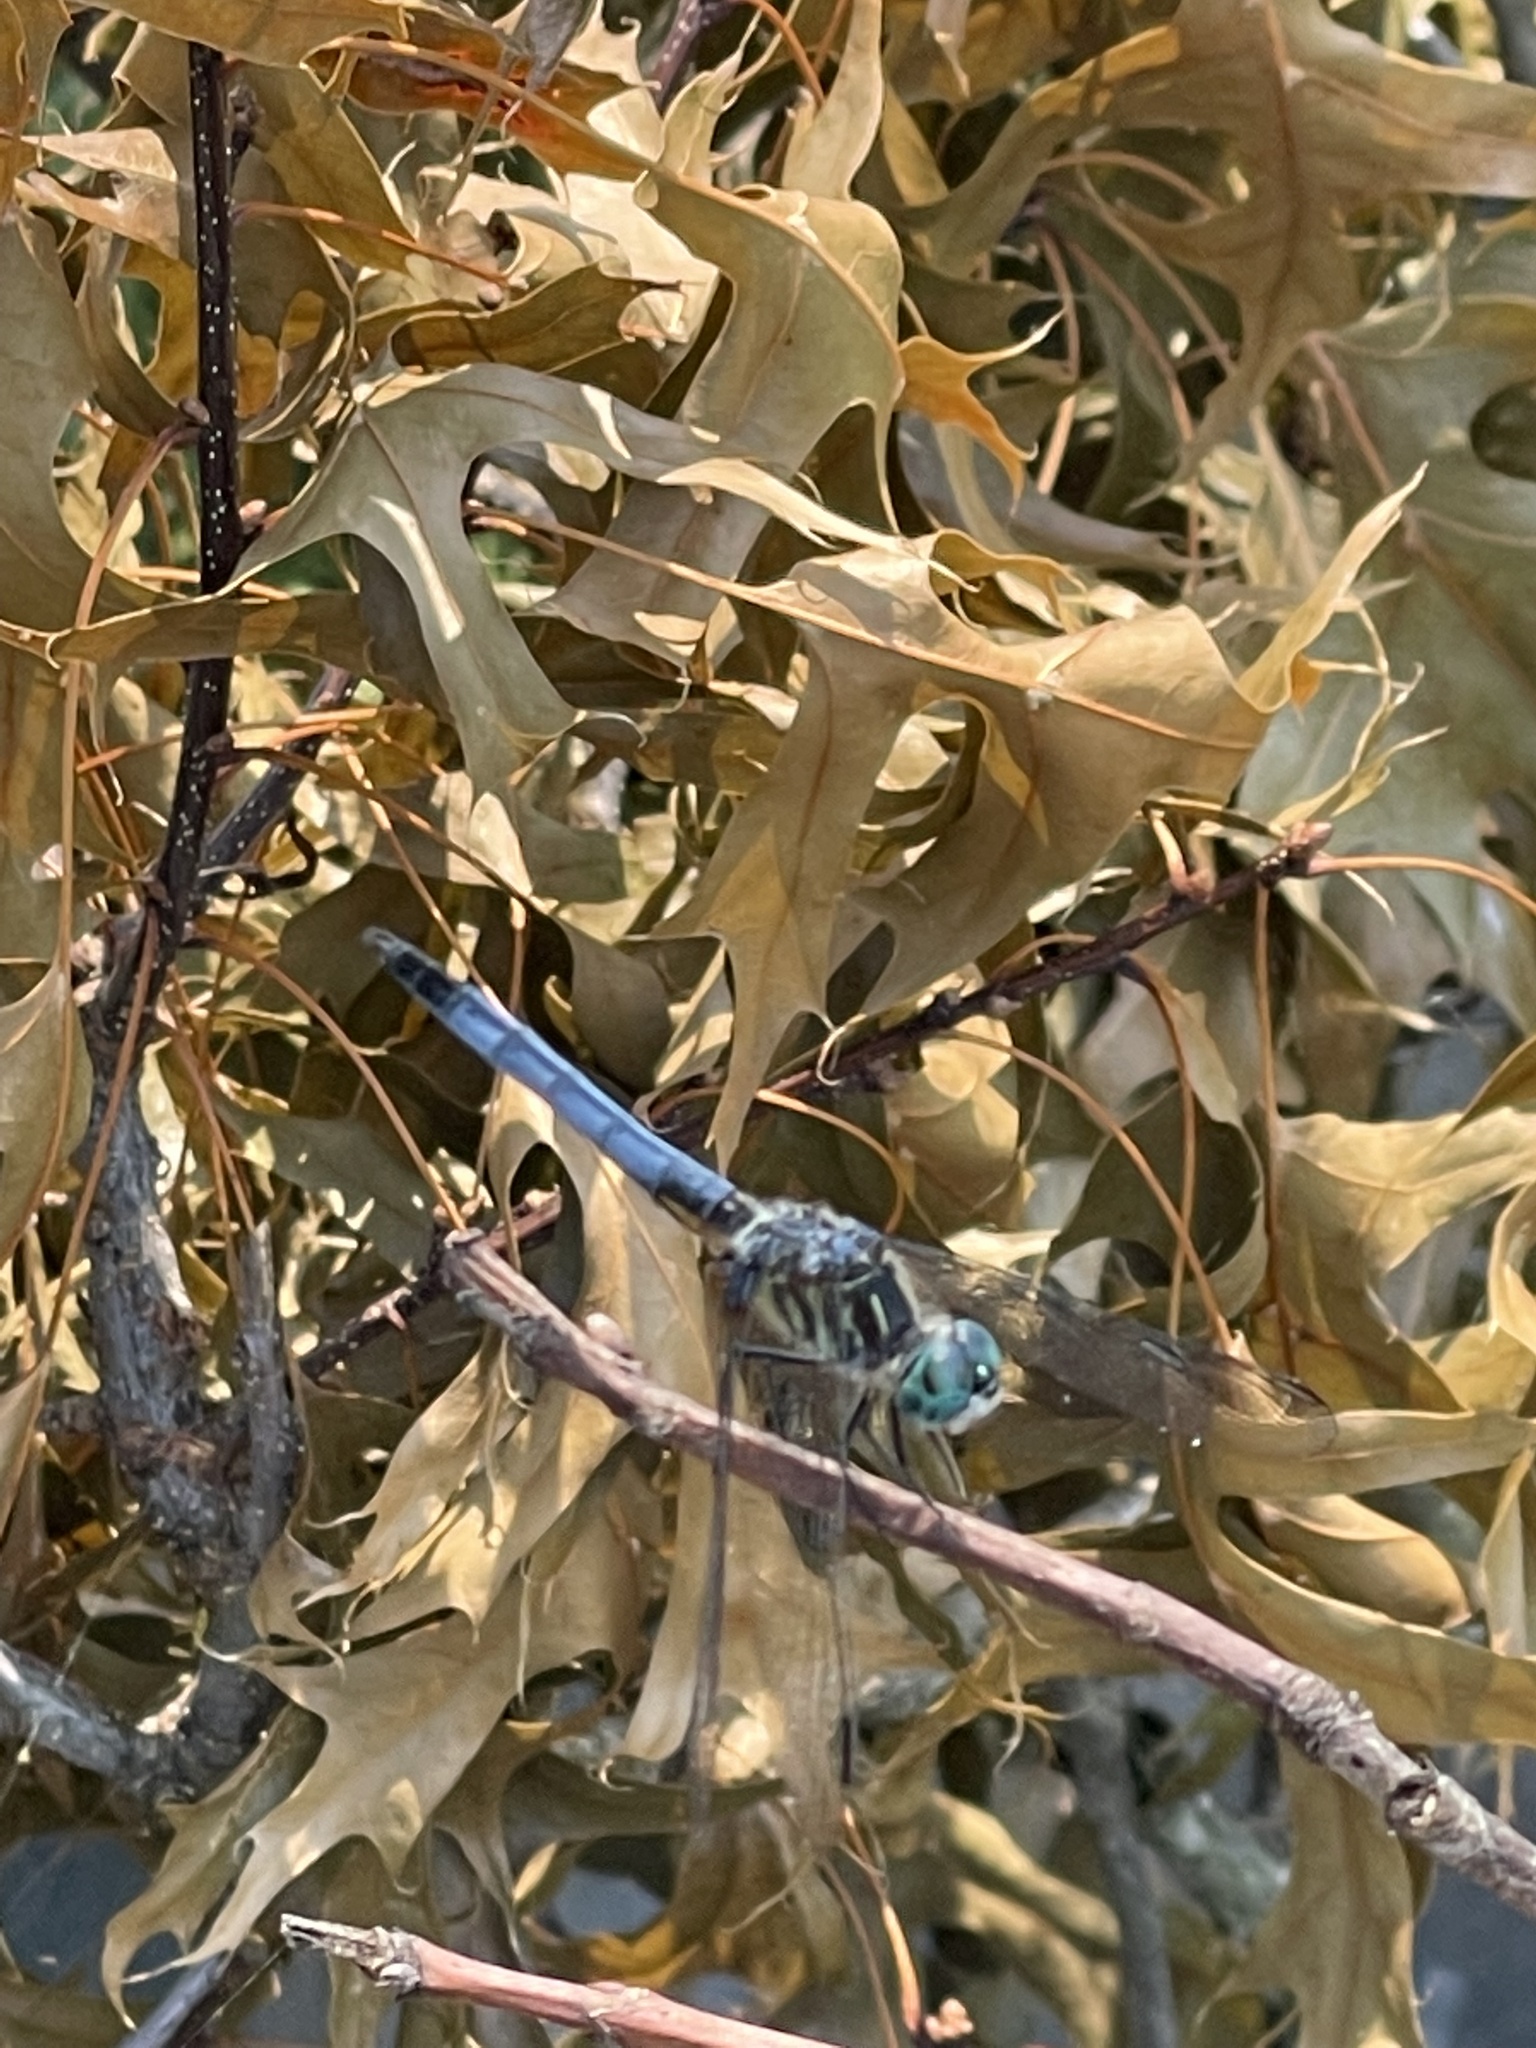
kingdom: Animalia
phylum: Arthropoda
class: Insecta
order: Odonata
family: Libellulidae
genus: Pachydiplax
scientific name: Pachydiplax longipennis
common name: Blue dasher
